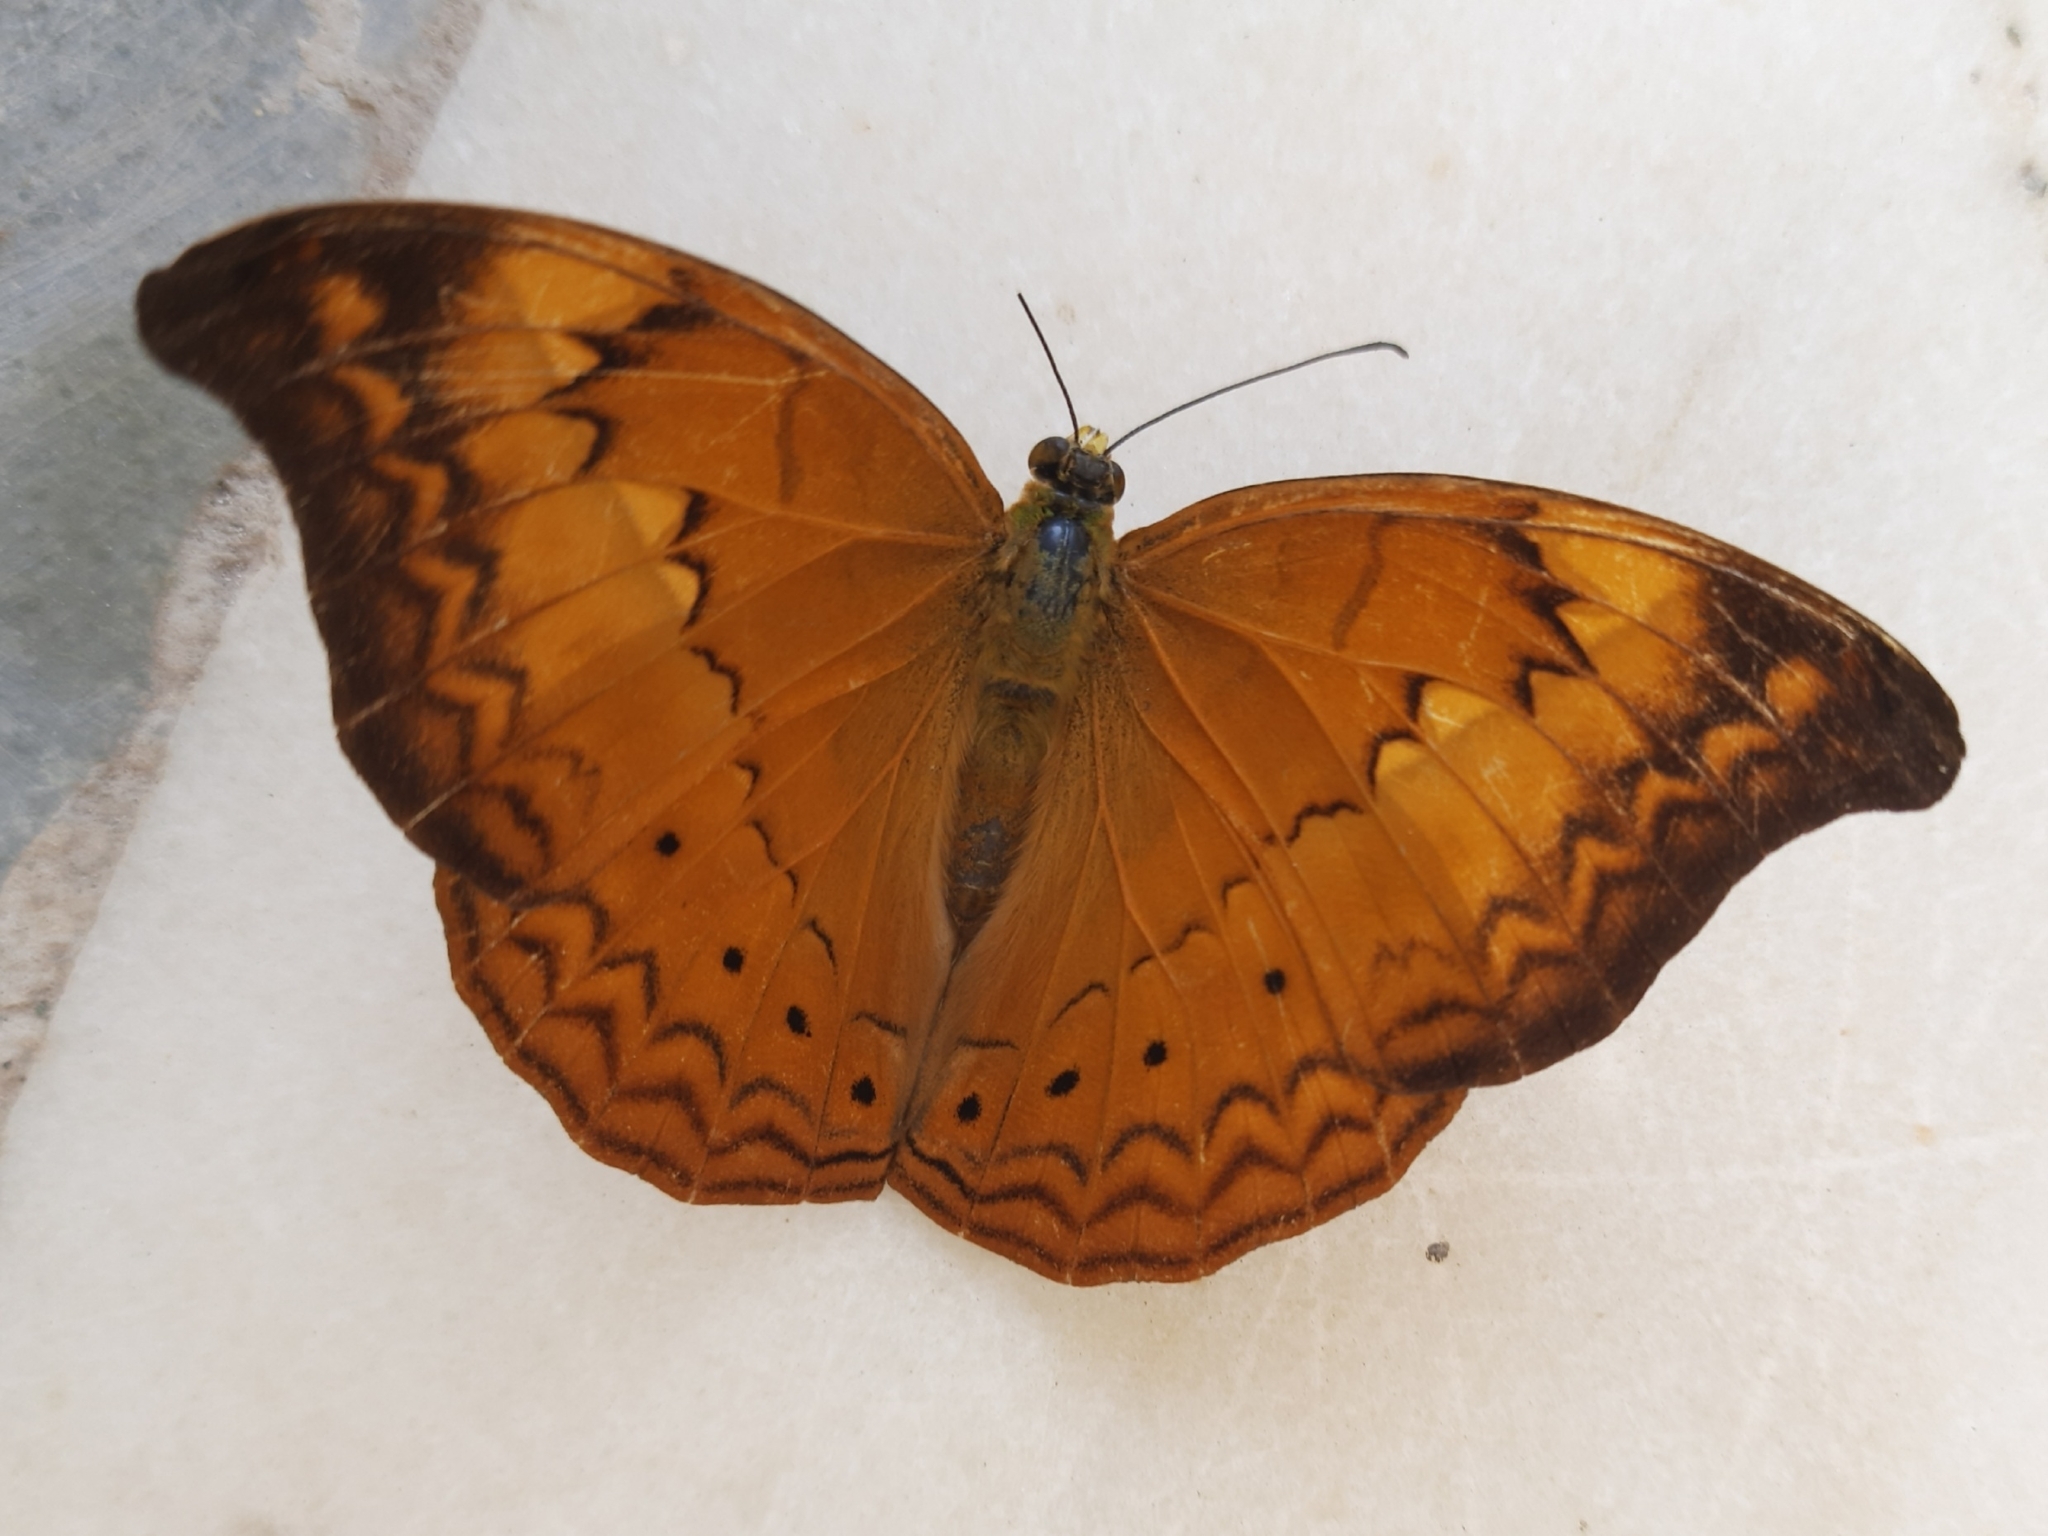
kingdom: Animalia
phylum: Arthropoda
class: Insecta
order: Lepidoptera
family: Nymphalidae
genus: Cirrochroa
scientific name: Cirrochroa thais
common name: Tamil yeoman
